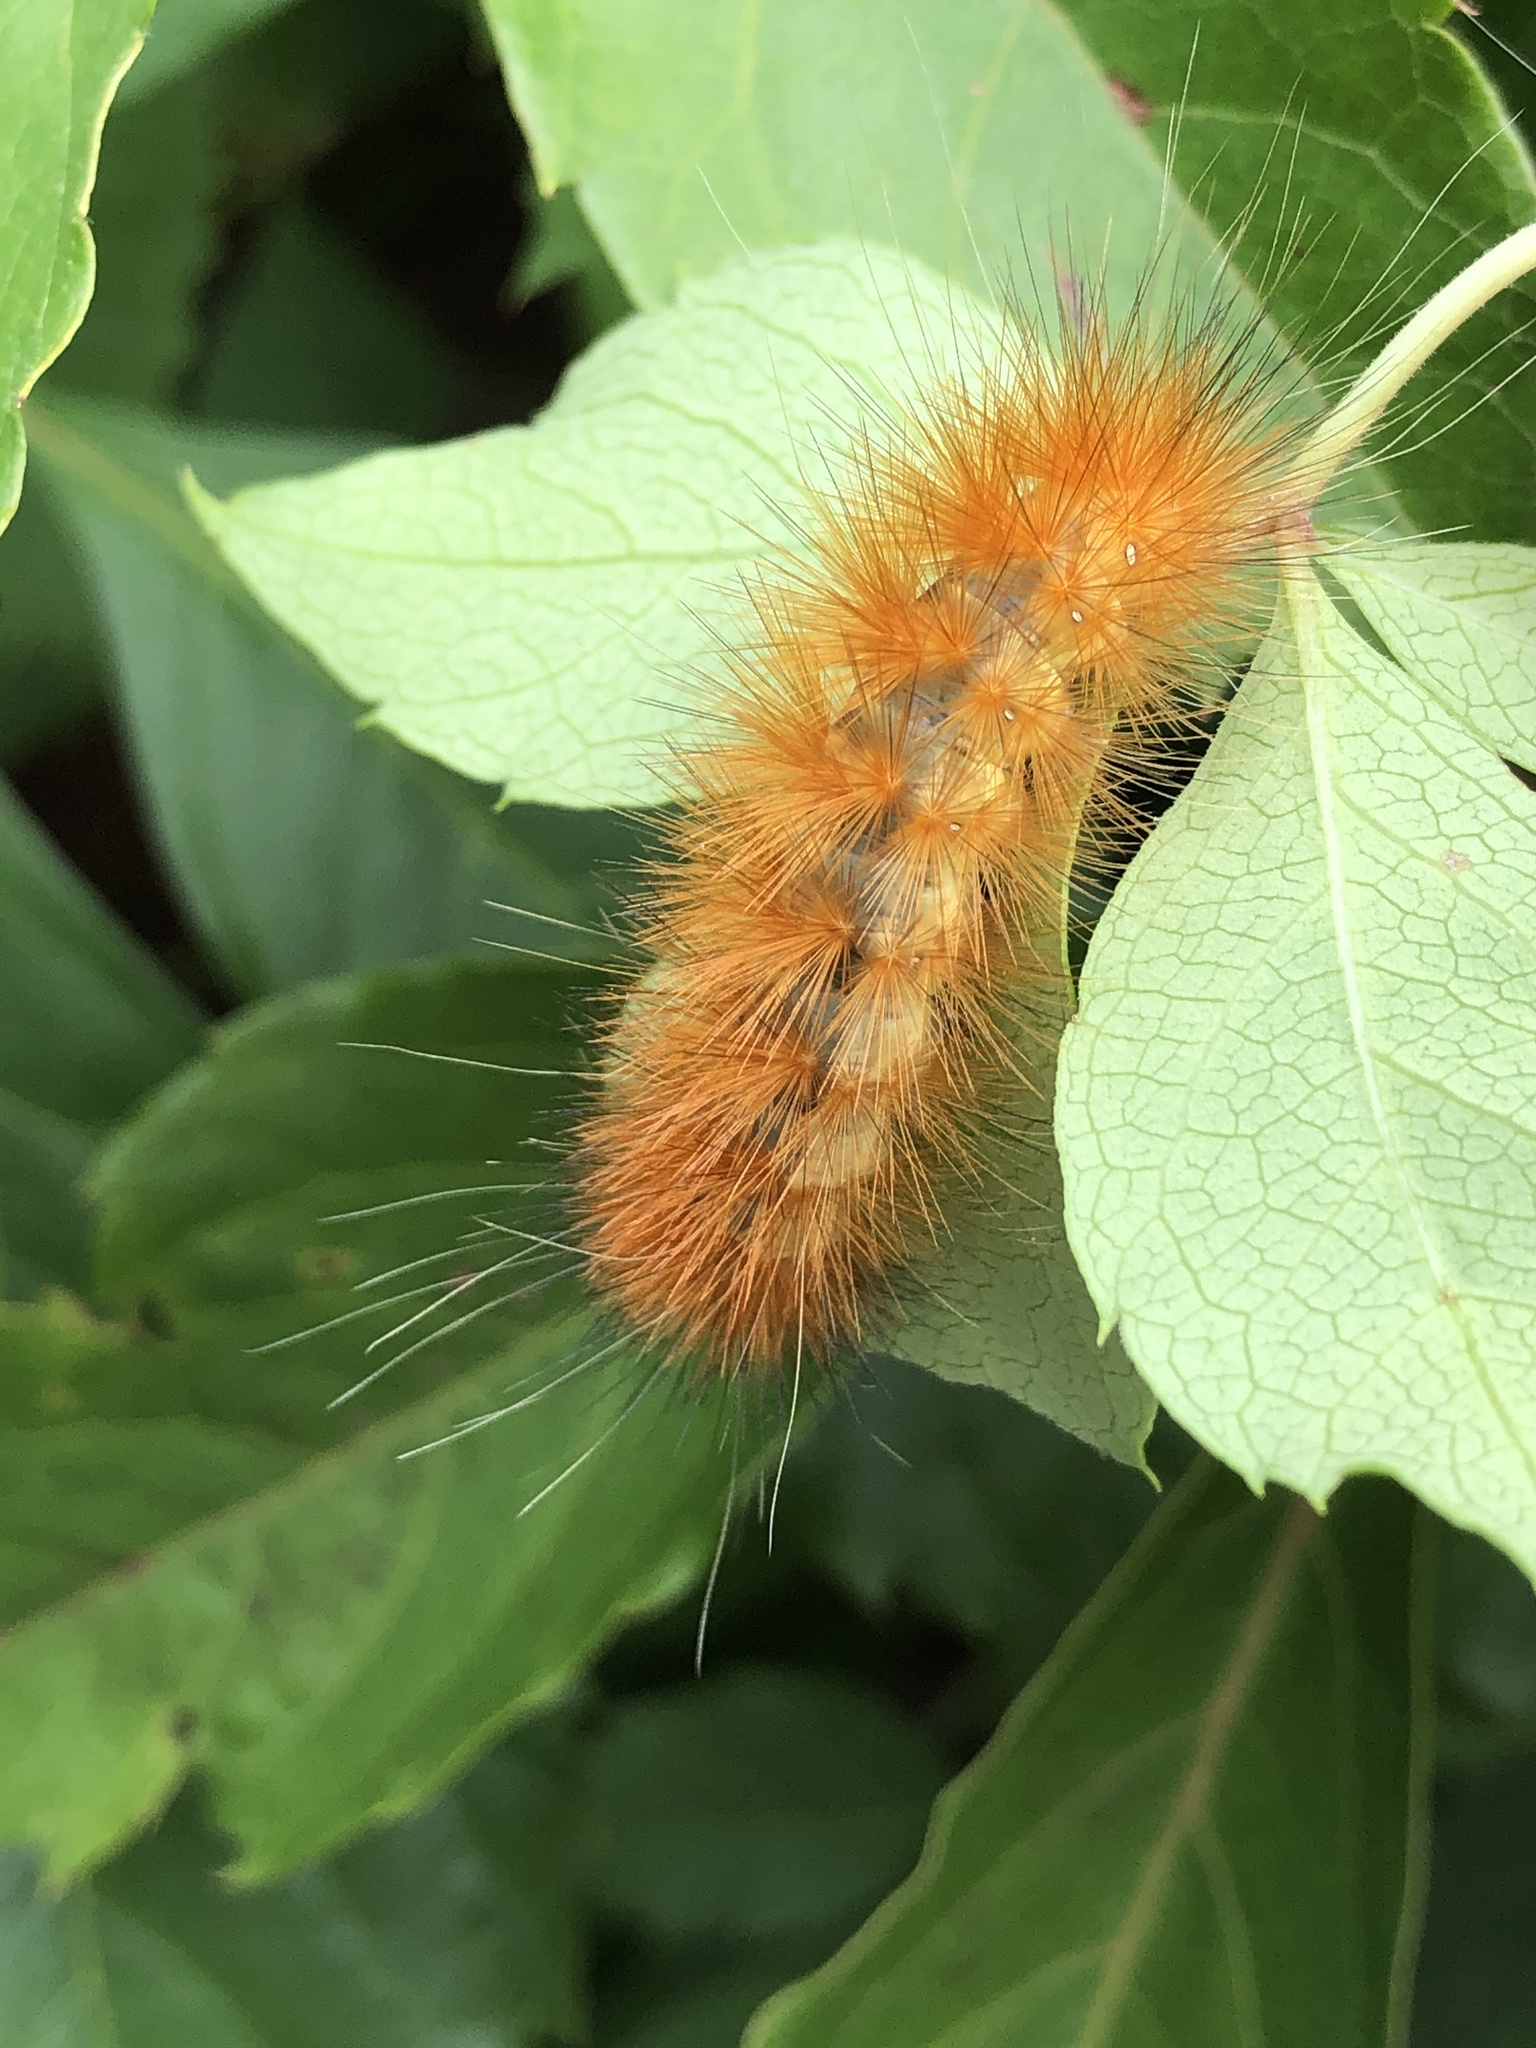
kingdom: Animalia
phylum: Arthropoda
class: Insecta
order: Lepidoptera
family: Erebidae
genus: Spilosoma
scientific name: Spilosoma virginica
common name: Virginia tiger moth
